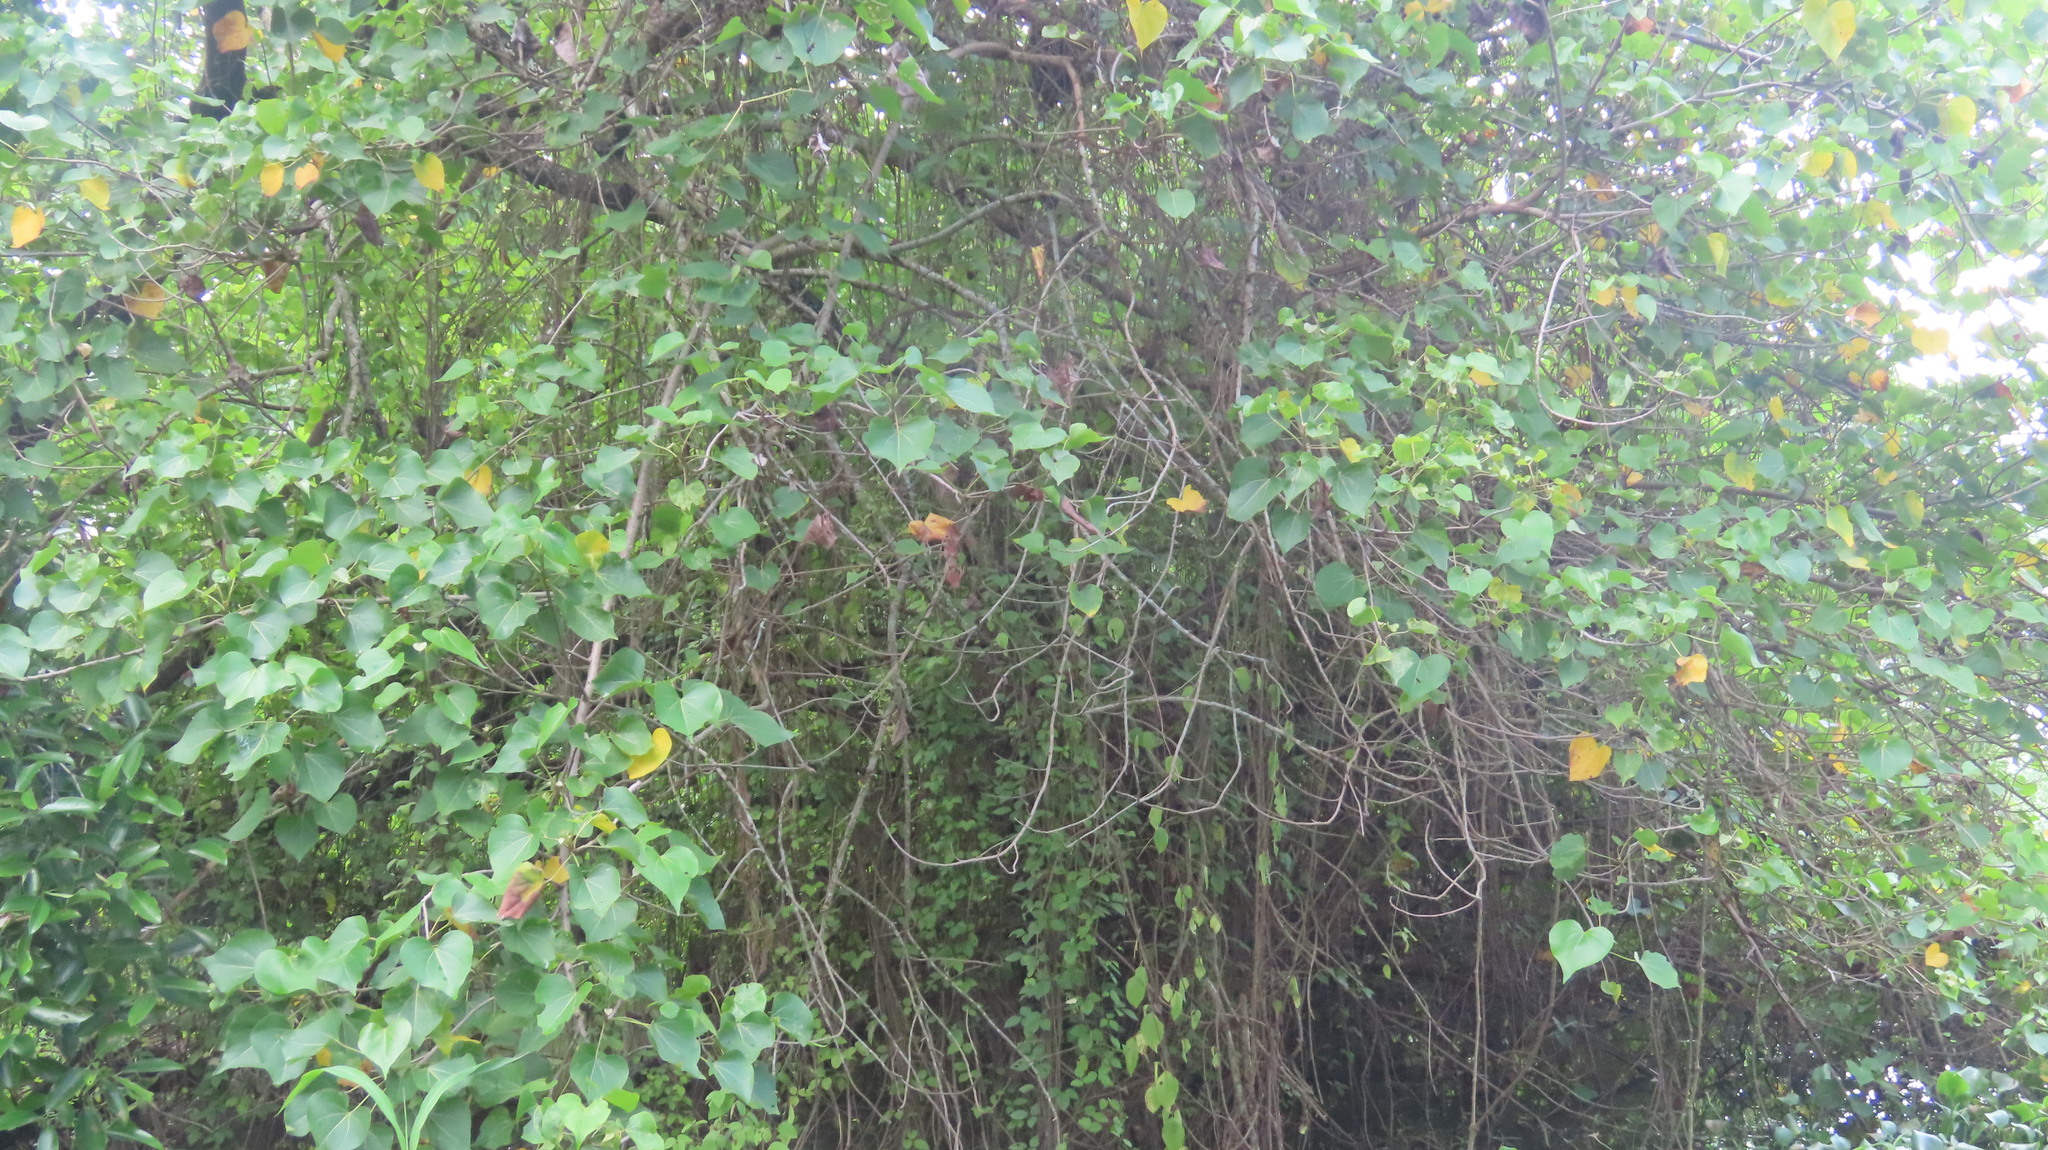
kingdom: Plantae
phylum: Tracheophyta
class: Magnoliopsida
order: Malvales
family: Malvaceae
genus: Thespesia
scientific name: Thespesia populnea
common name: Seaside mahoe
